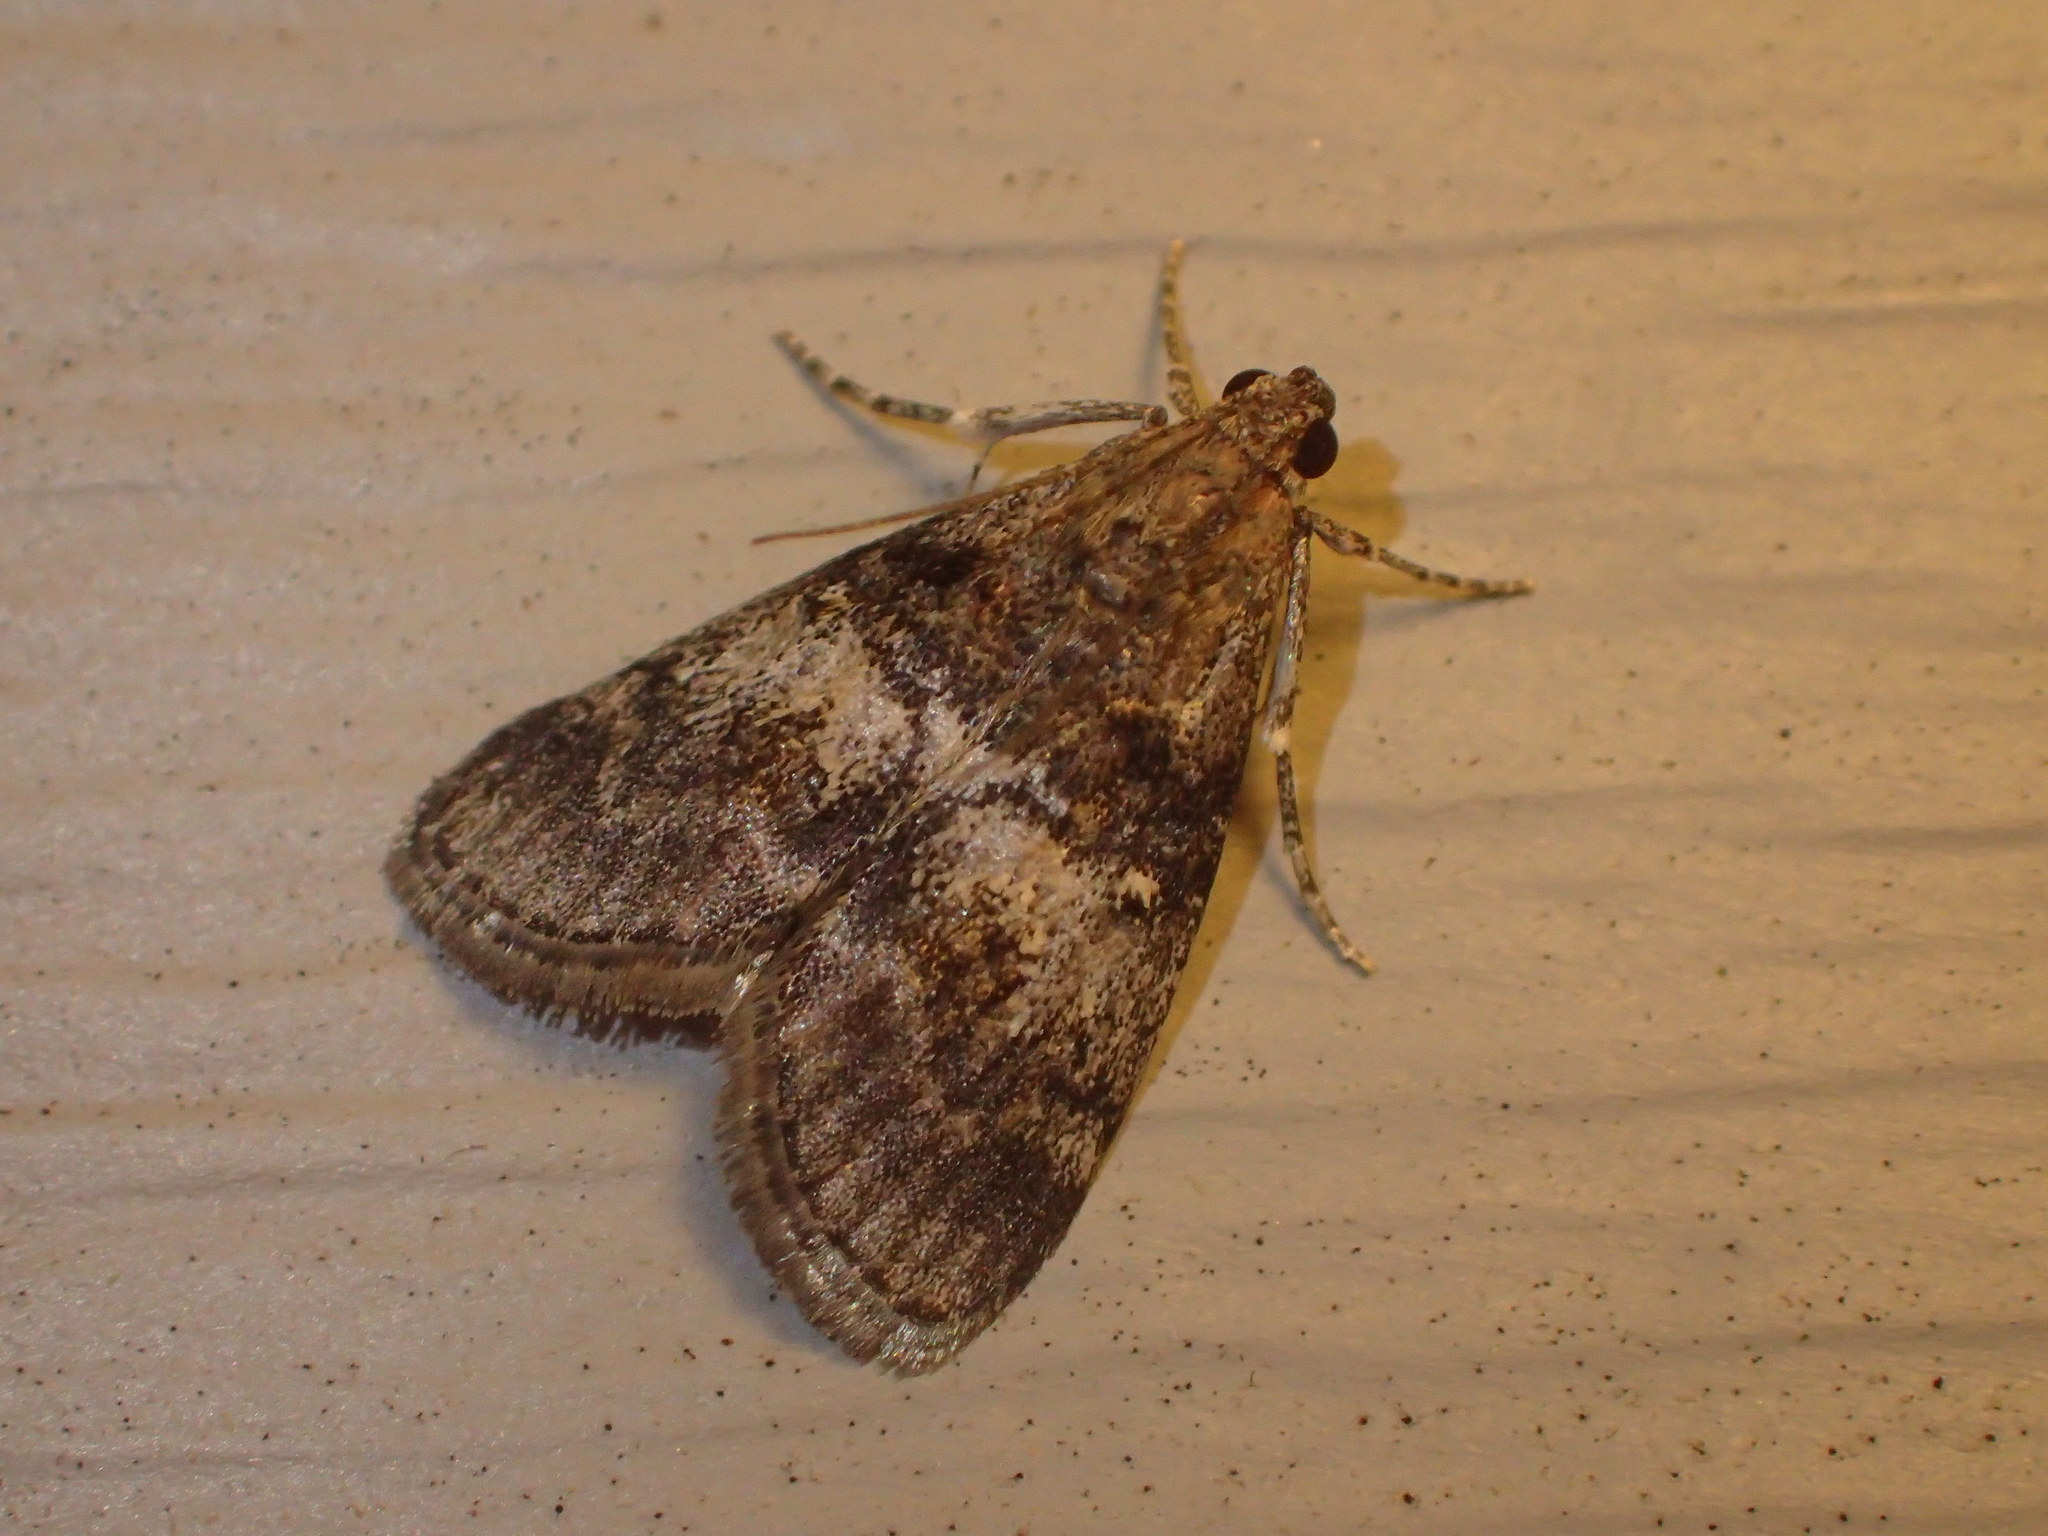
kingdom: Animalia
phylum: Arthropoda
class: Insecta
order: Lepidoptera
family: Pyralidae
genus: Pococera
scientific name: Pococera asperatella
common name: Maple webworm moth
